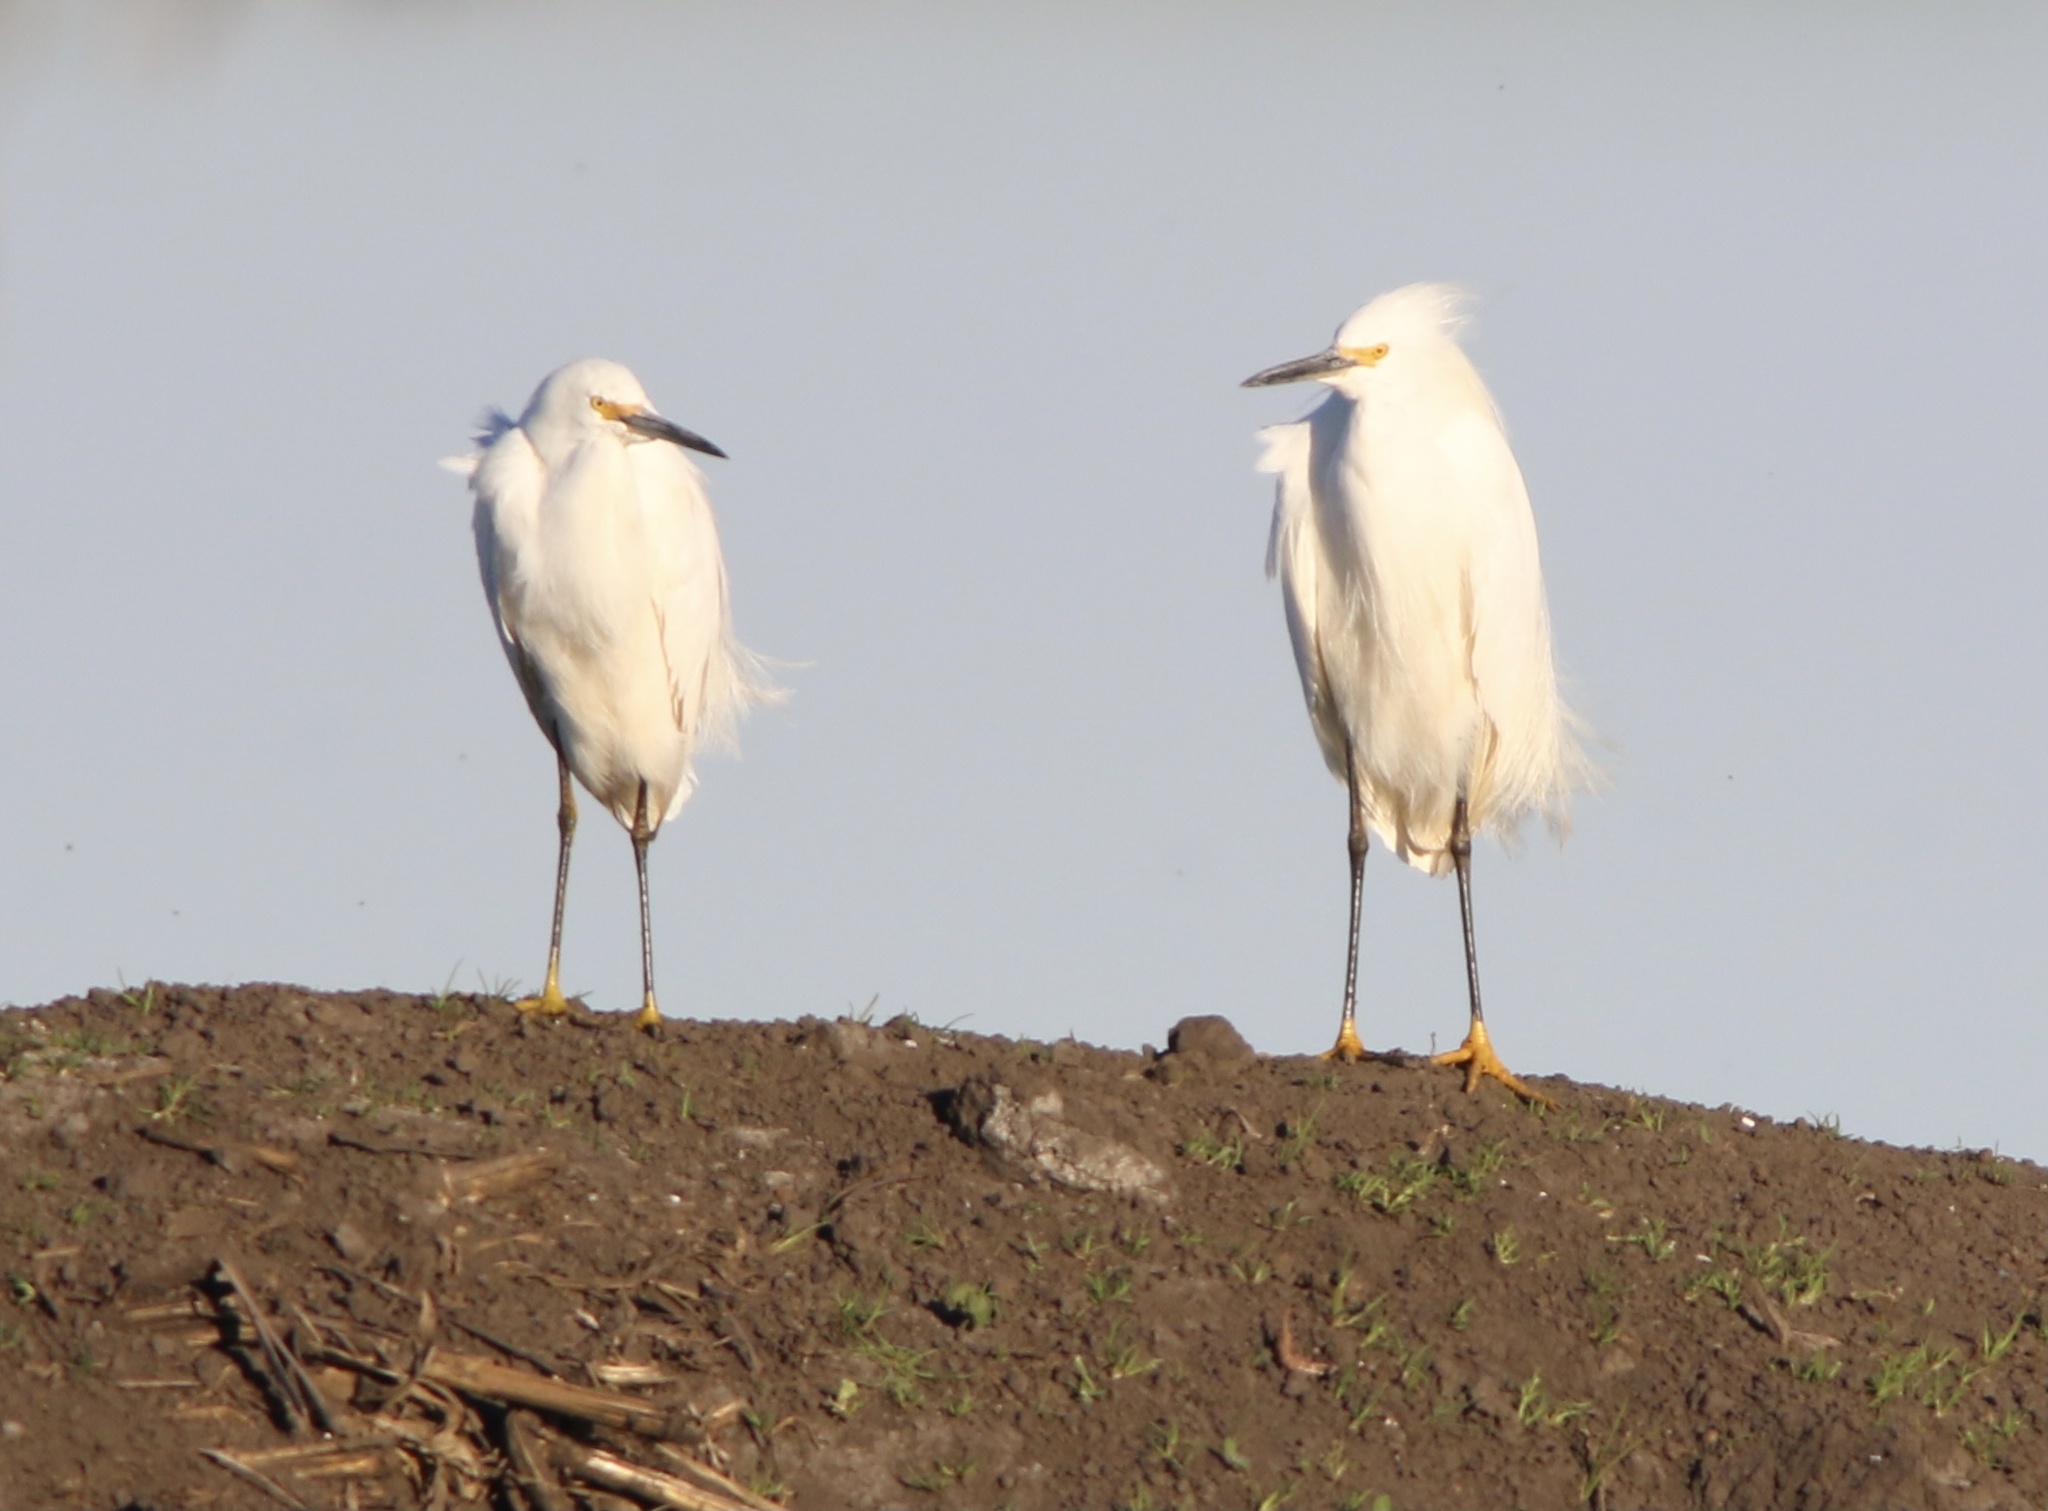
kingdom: Animalia
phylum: Chordata
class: Aves
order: Pelecaniformes
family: Ardeidae
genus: Egretta
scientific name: Egretta thula
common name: Snowy egret
